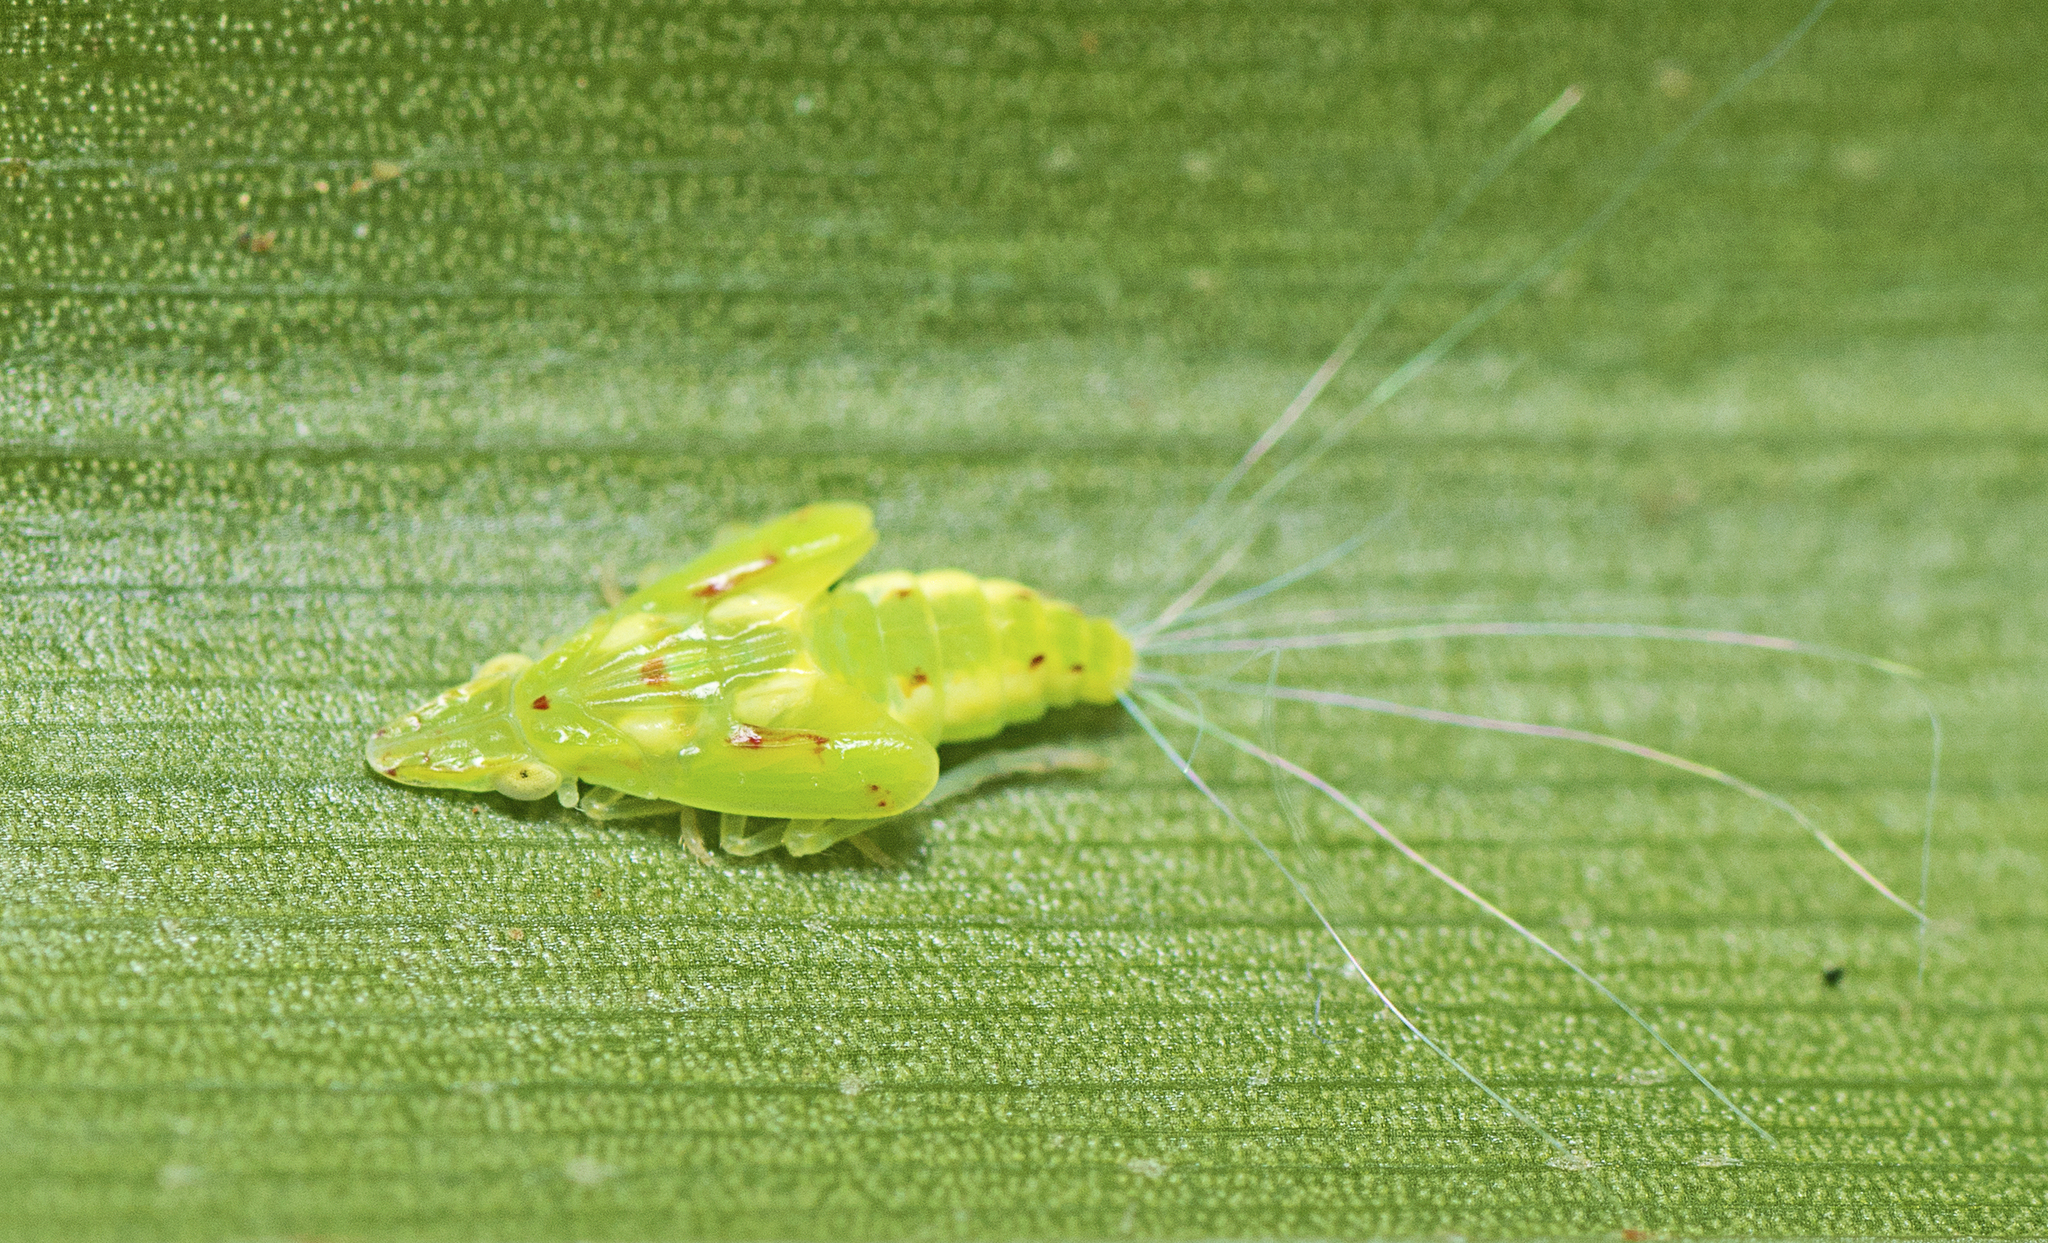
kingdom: Animalia
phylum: Arthropoda
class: Insecta
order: Hemiptera
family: Tropiduchidae
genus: Tambinia
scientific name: Tambinia sexmaculata
